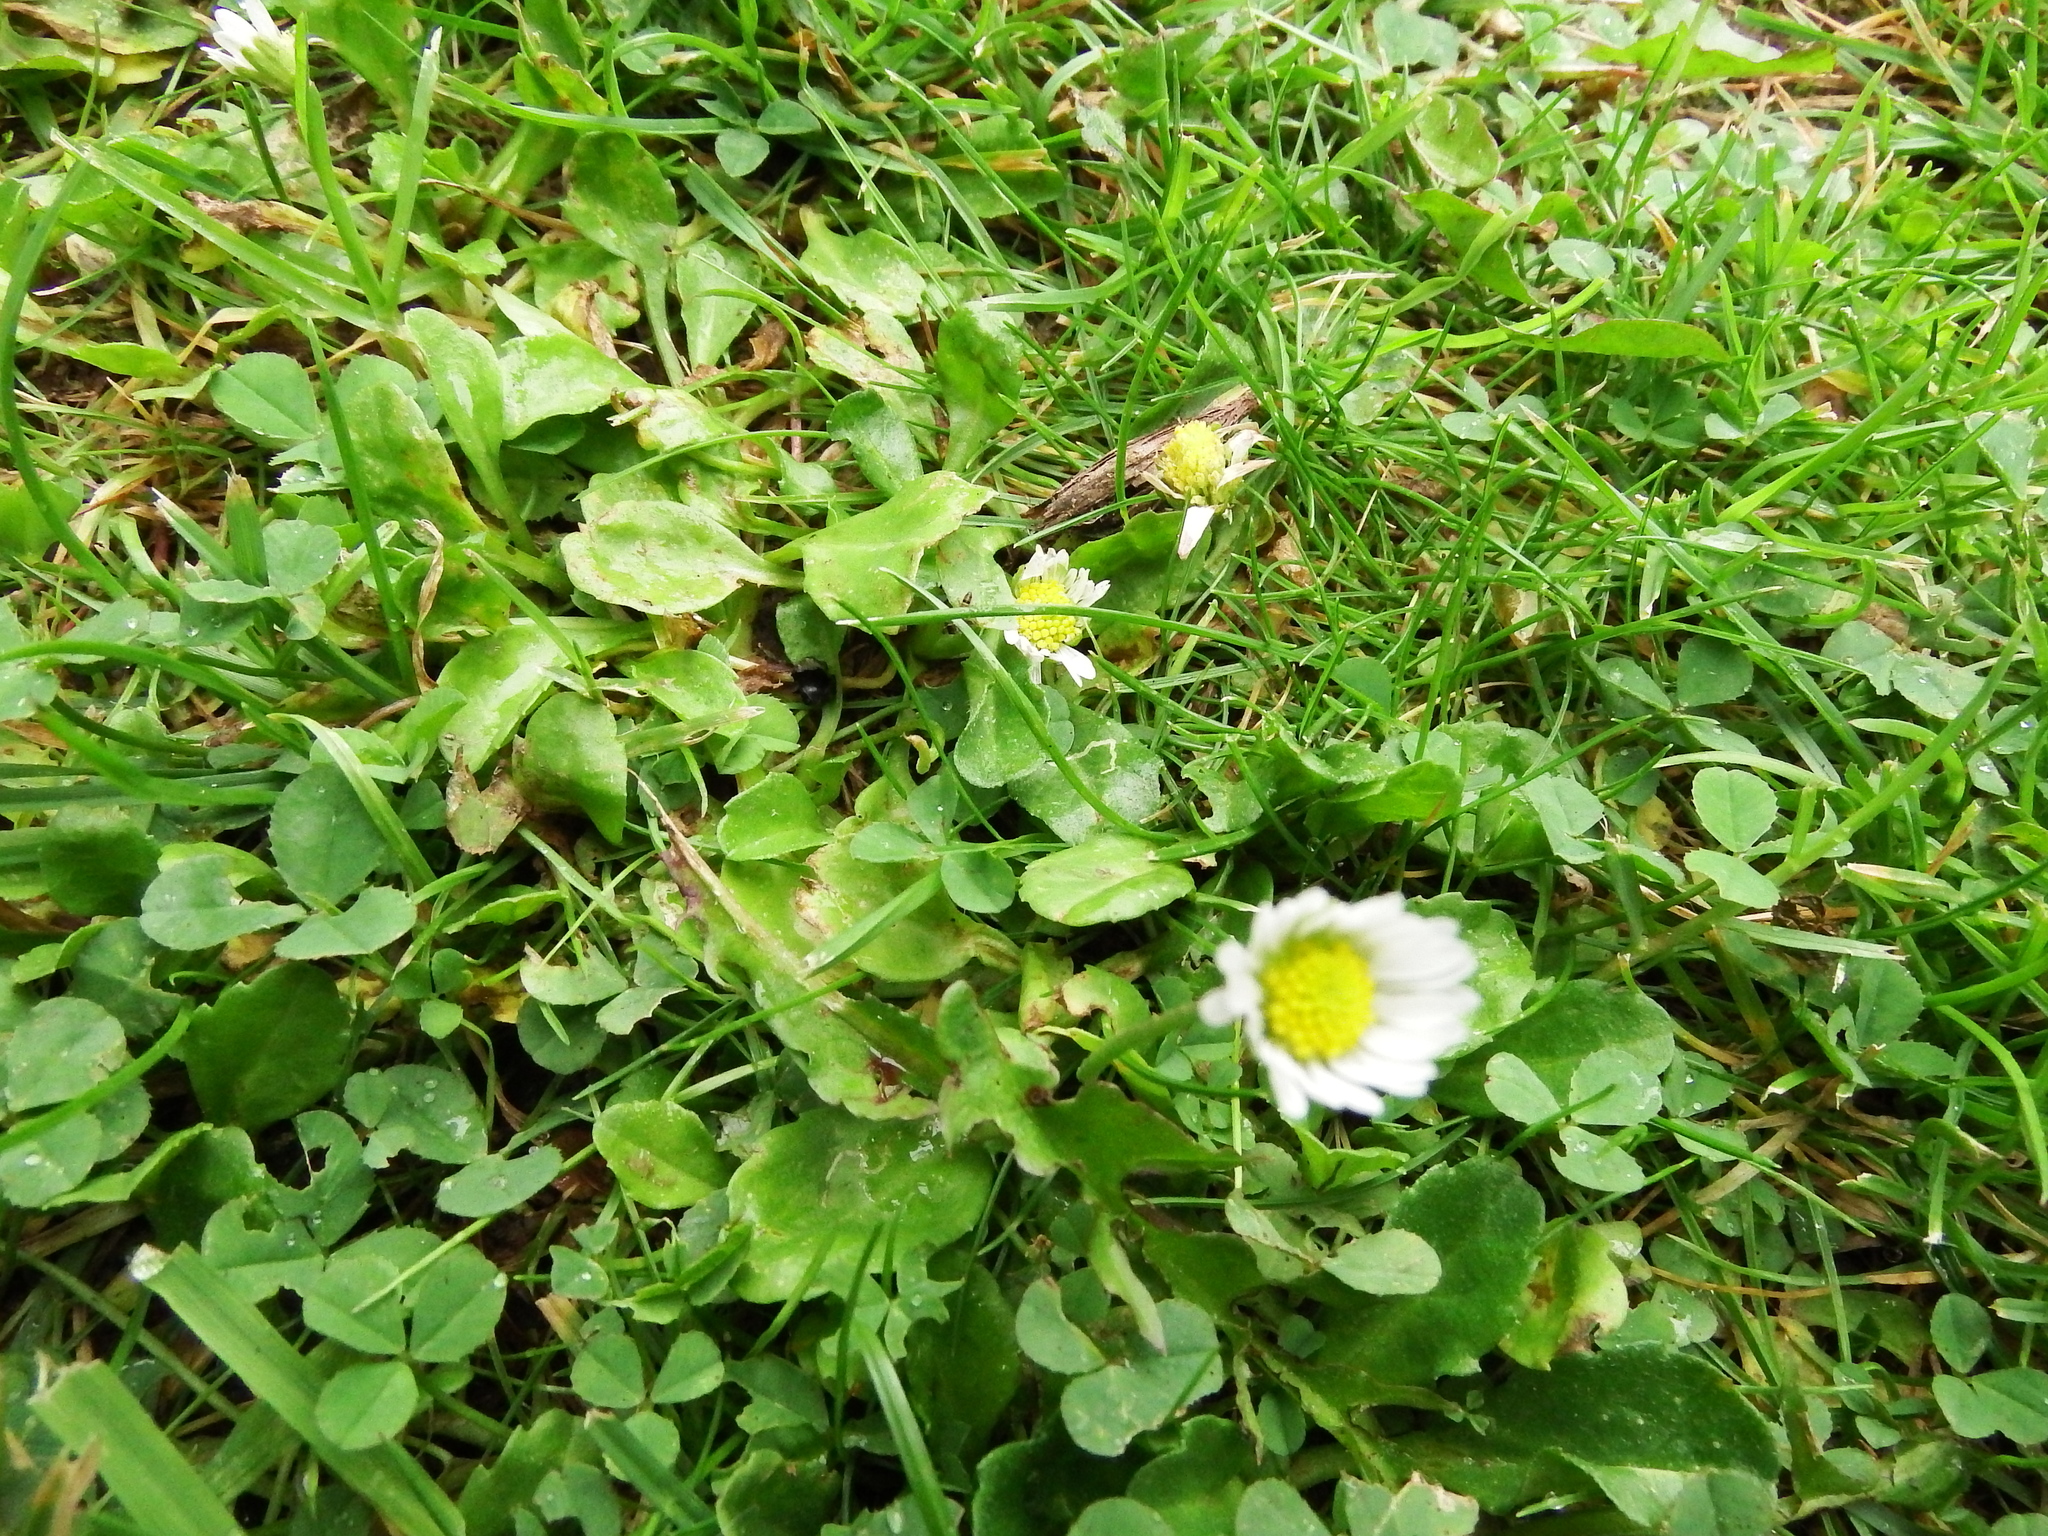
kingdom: Plantae
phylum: Tracheophyta
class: Magnoliopsida
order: Asterales
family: Asteraceae
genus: Bellis
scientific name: Bellis perennis
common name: Lawndaisy
